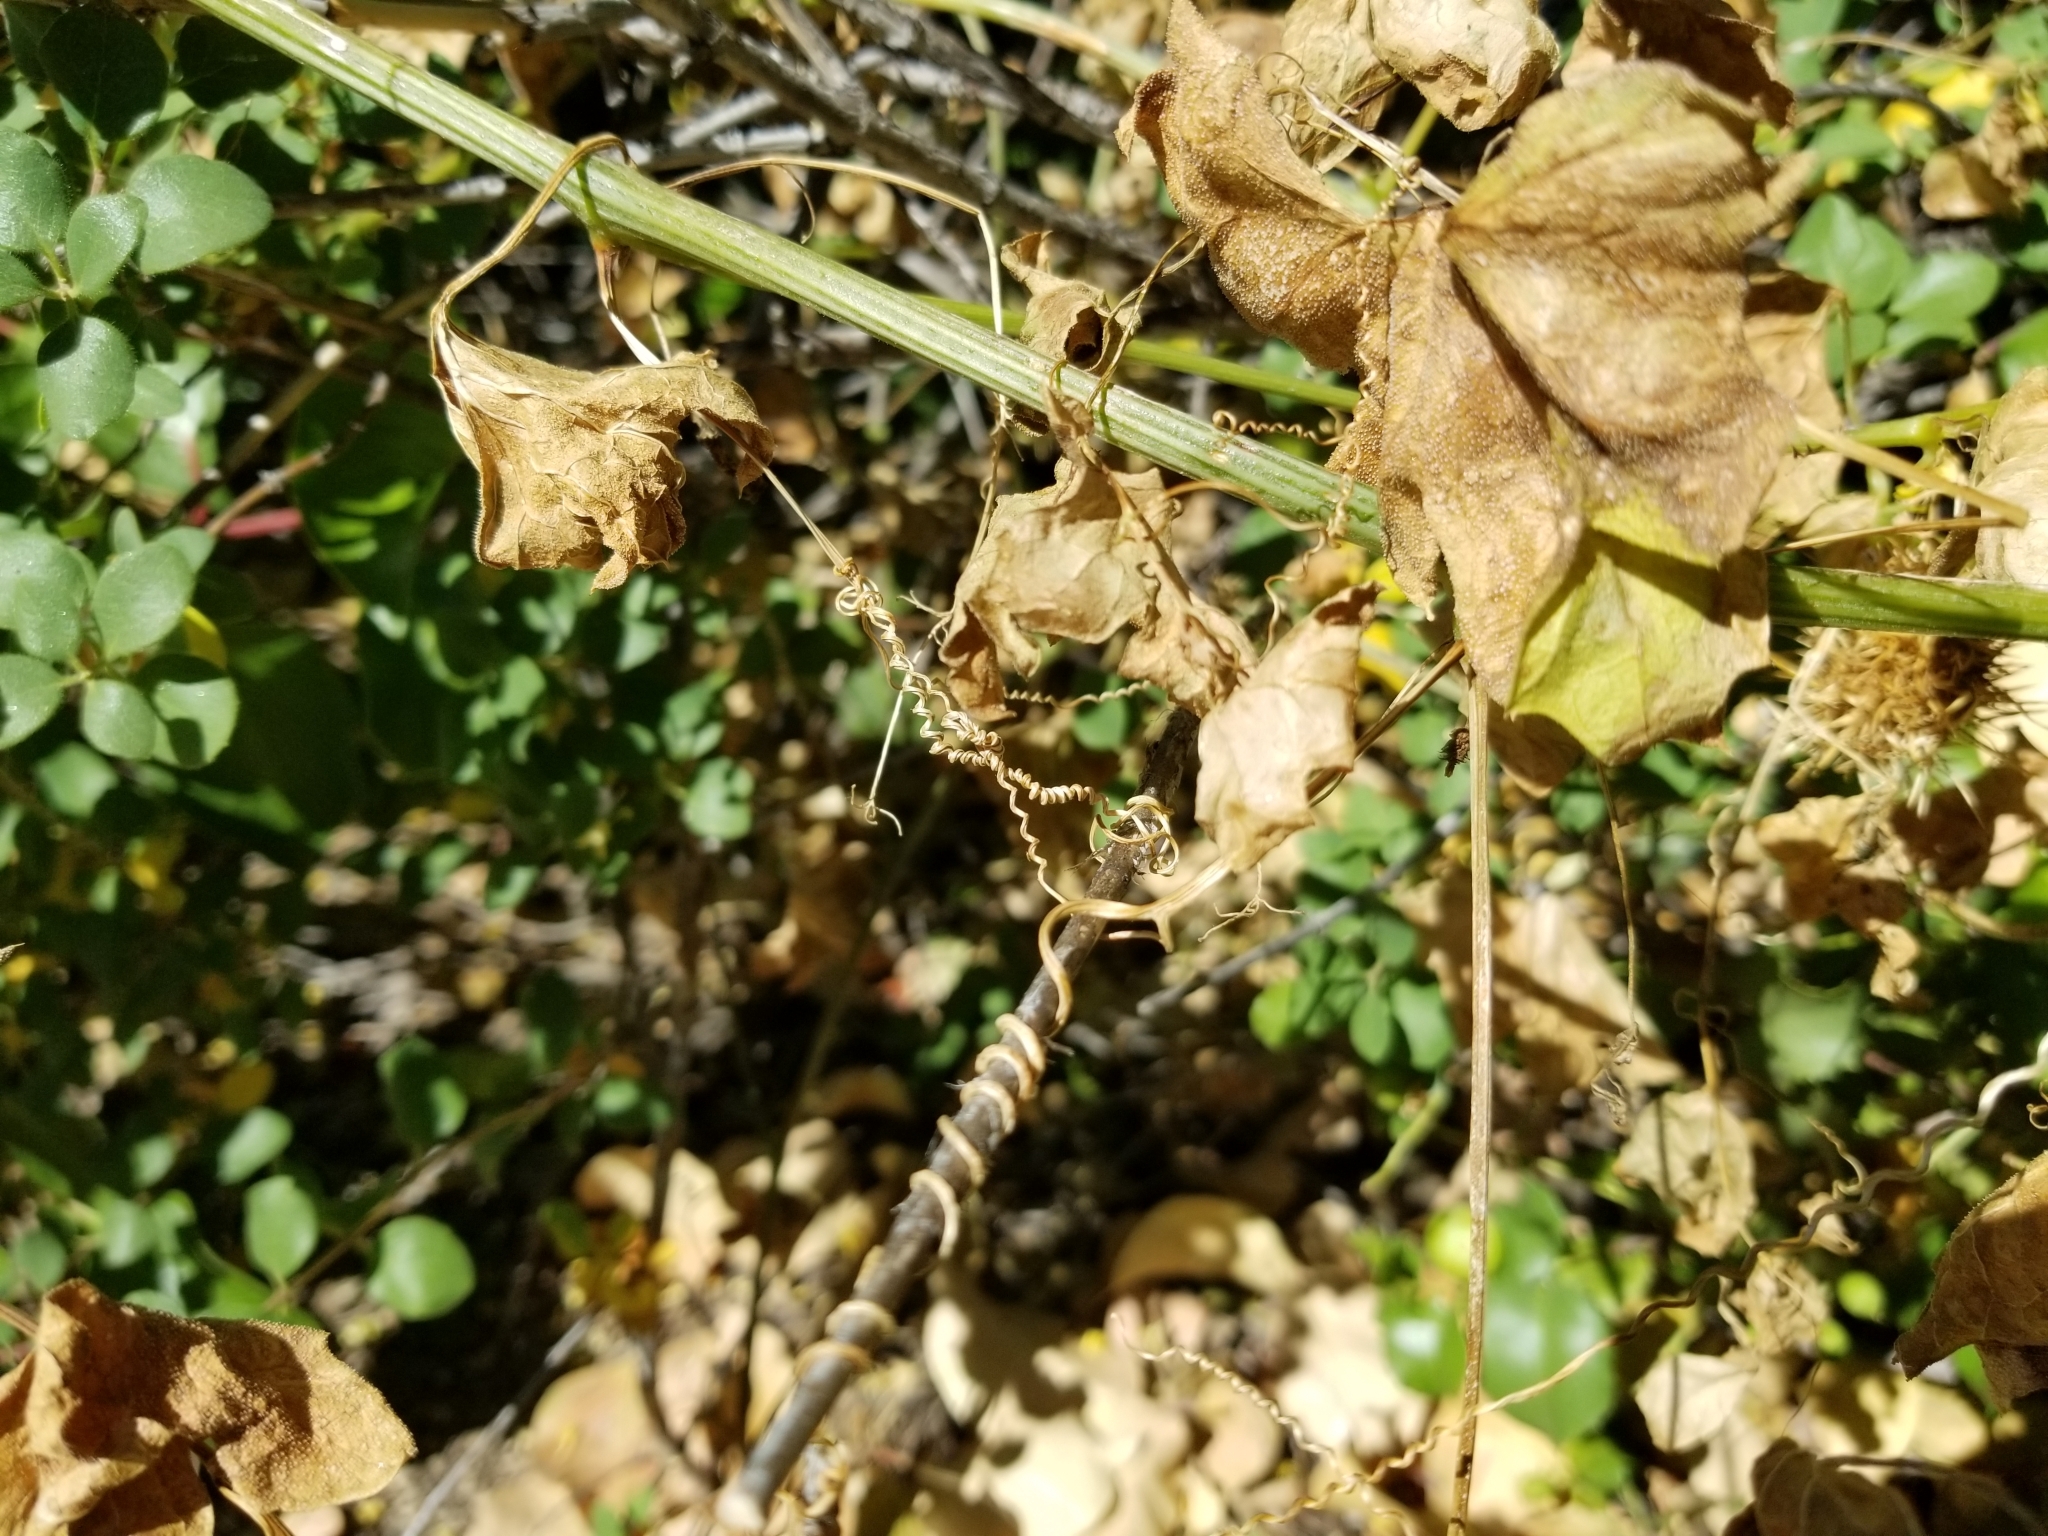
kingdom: Plantae
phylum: Tracheophyta
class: Magnoliopsida
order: Cucurbitales
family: Cucurbitaceae
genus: Marah
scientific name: Marah macrocarpa
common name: Cucamonga manroot
